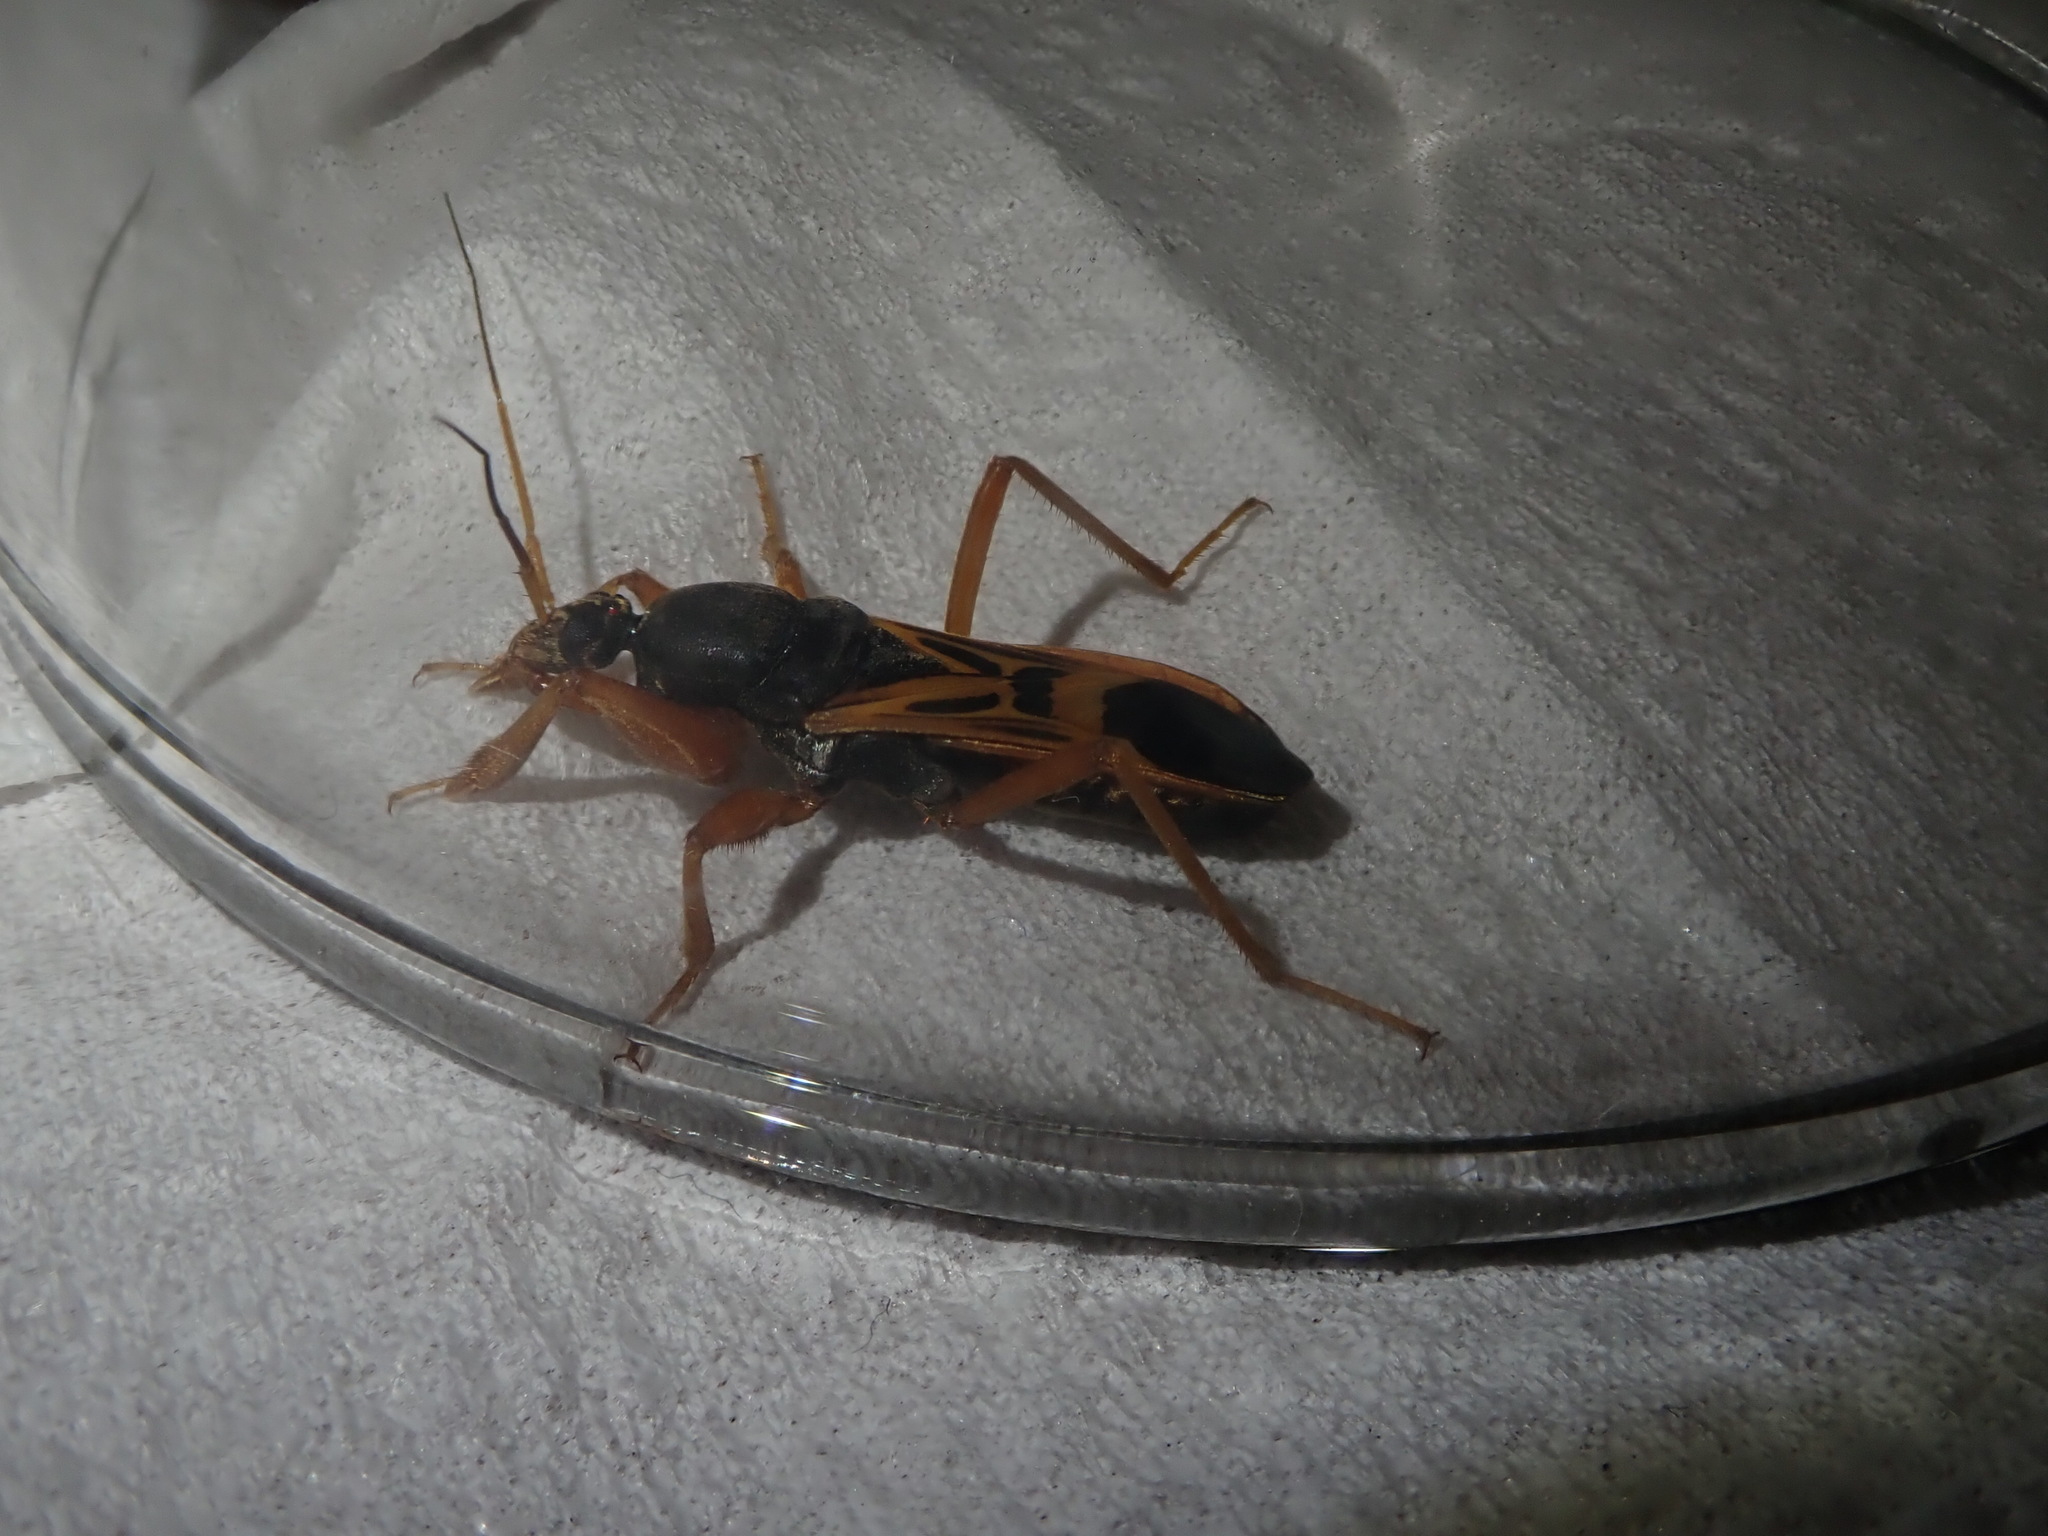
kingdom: Animalia
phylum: Arthropoda
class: Insecta
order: Hemiptera
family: Reduviidae
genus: Ectomocoris
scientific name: Ectomocoris elegans
